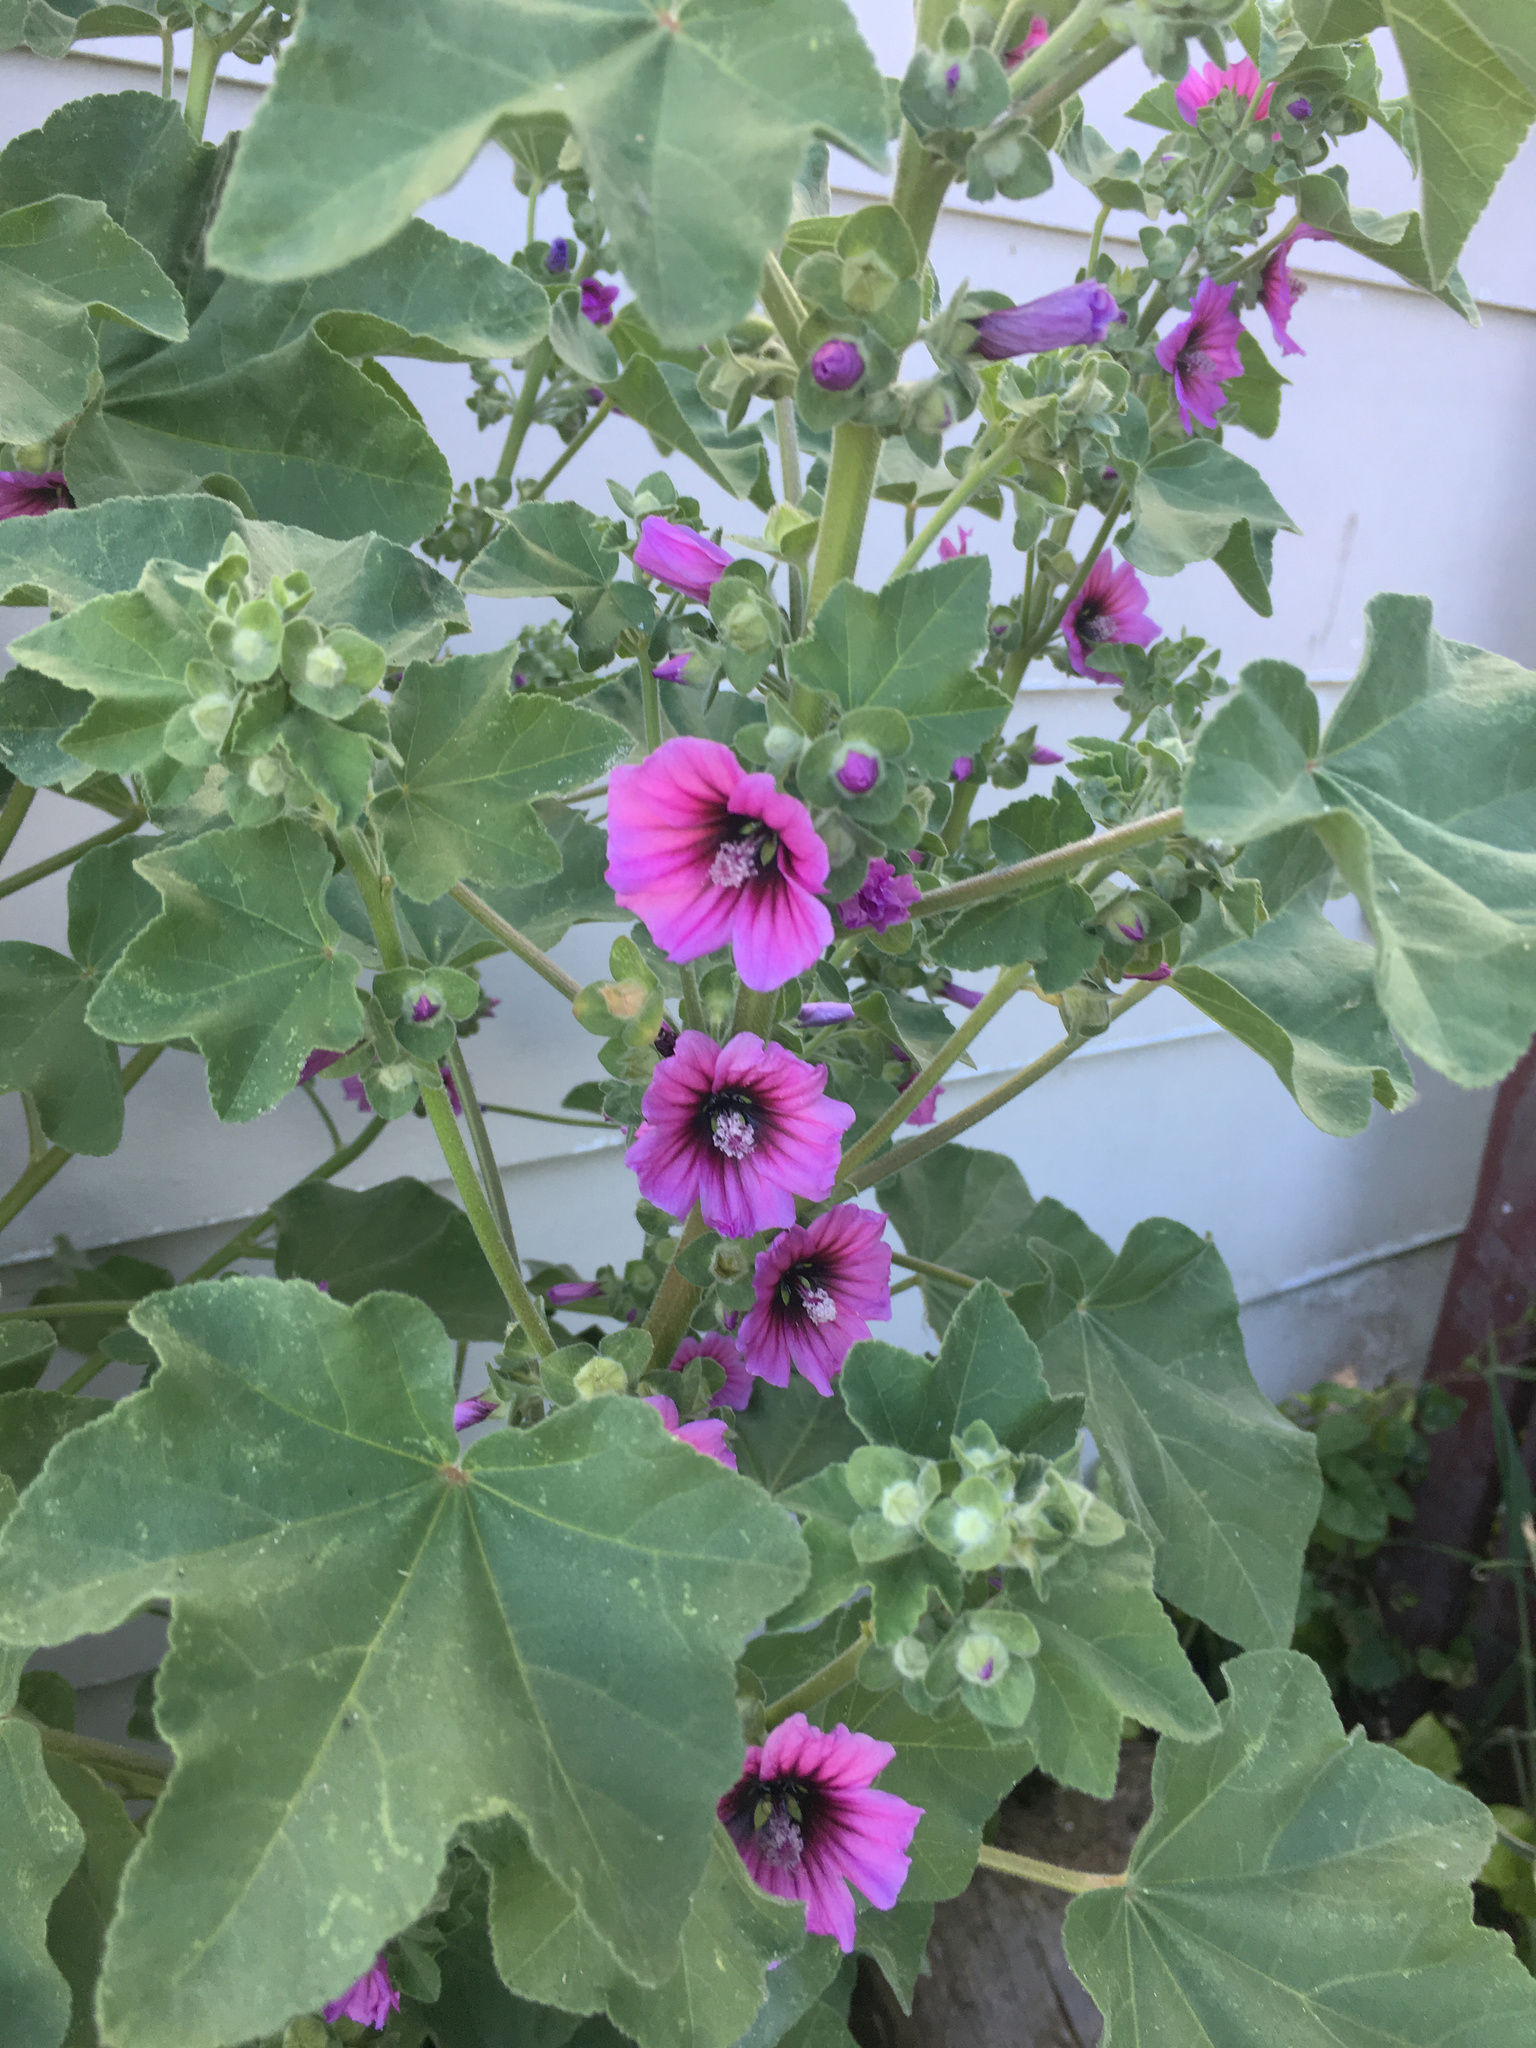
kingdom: Plantae
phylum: Tracheophyta
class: Magnoliopsida
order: Malvales
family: Malvaceae
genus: Malva
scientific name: Malva arborea
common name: Tree mallow
